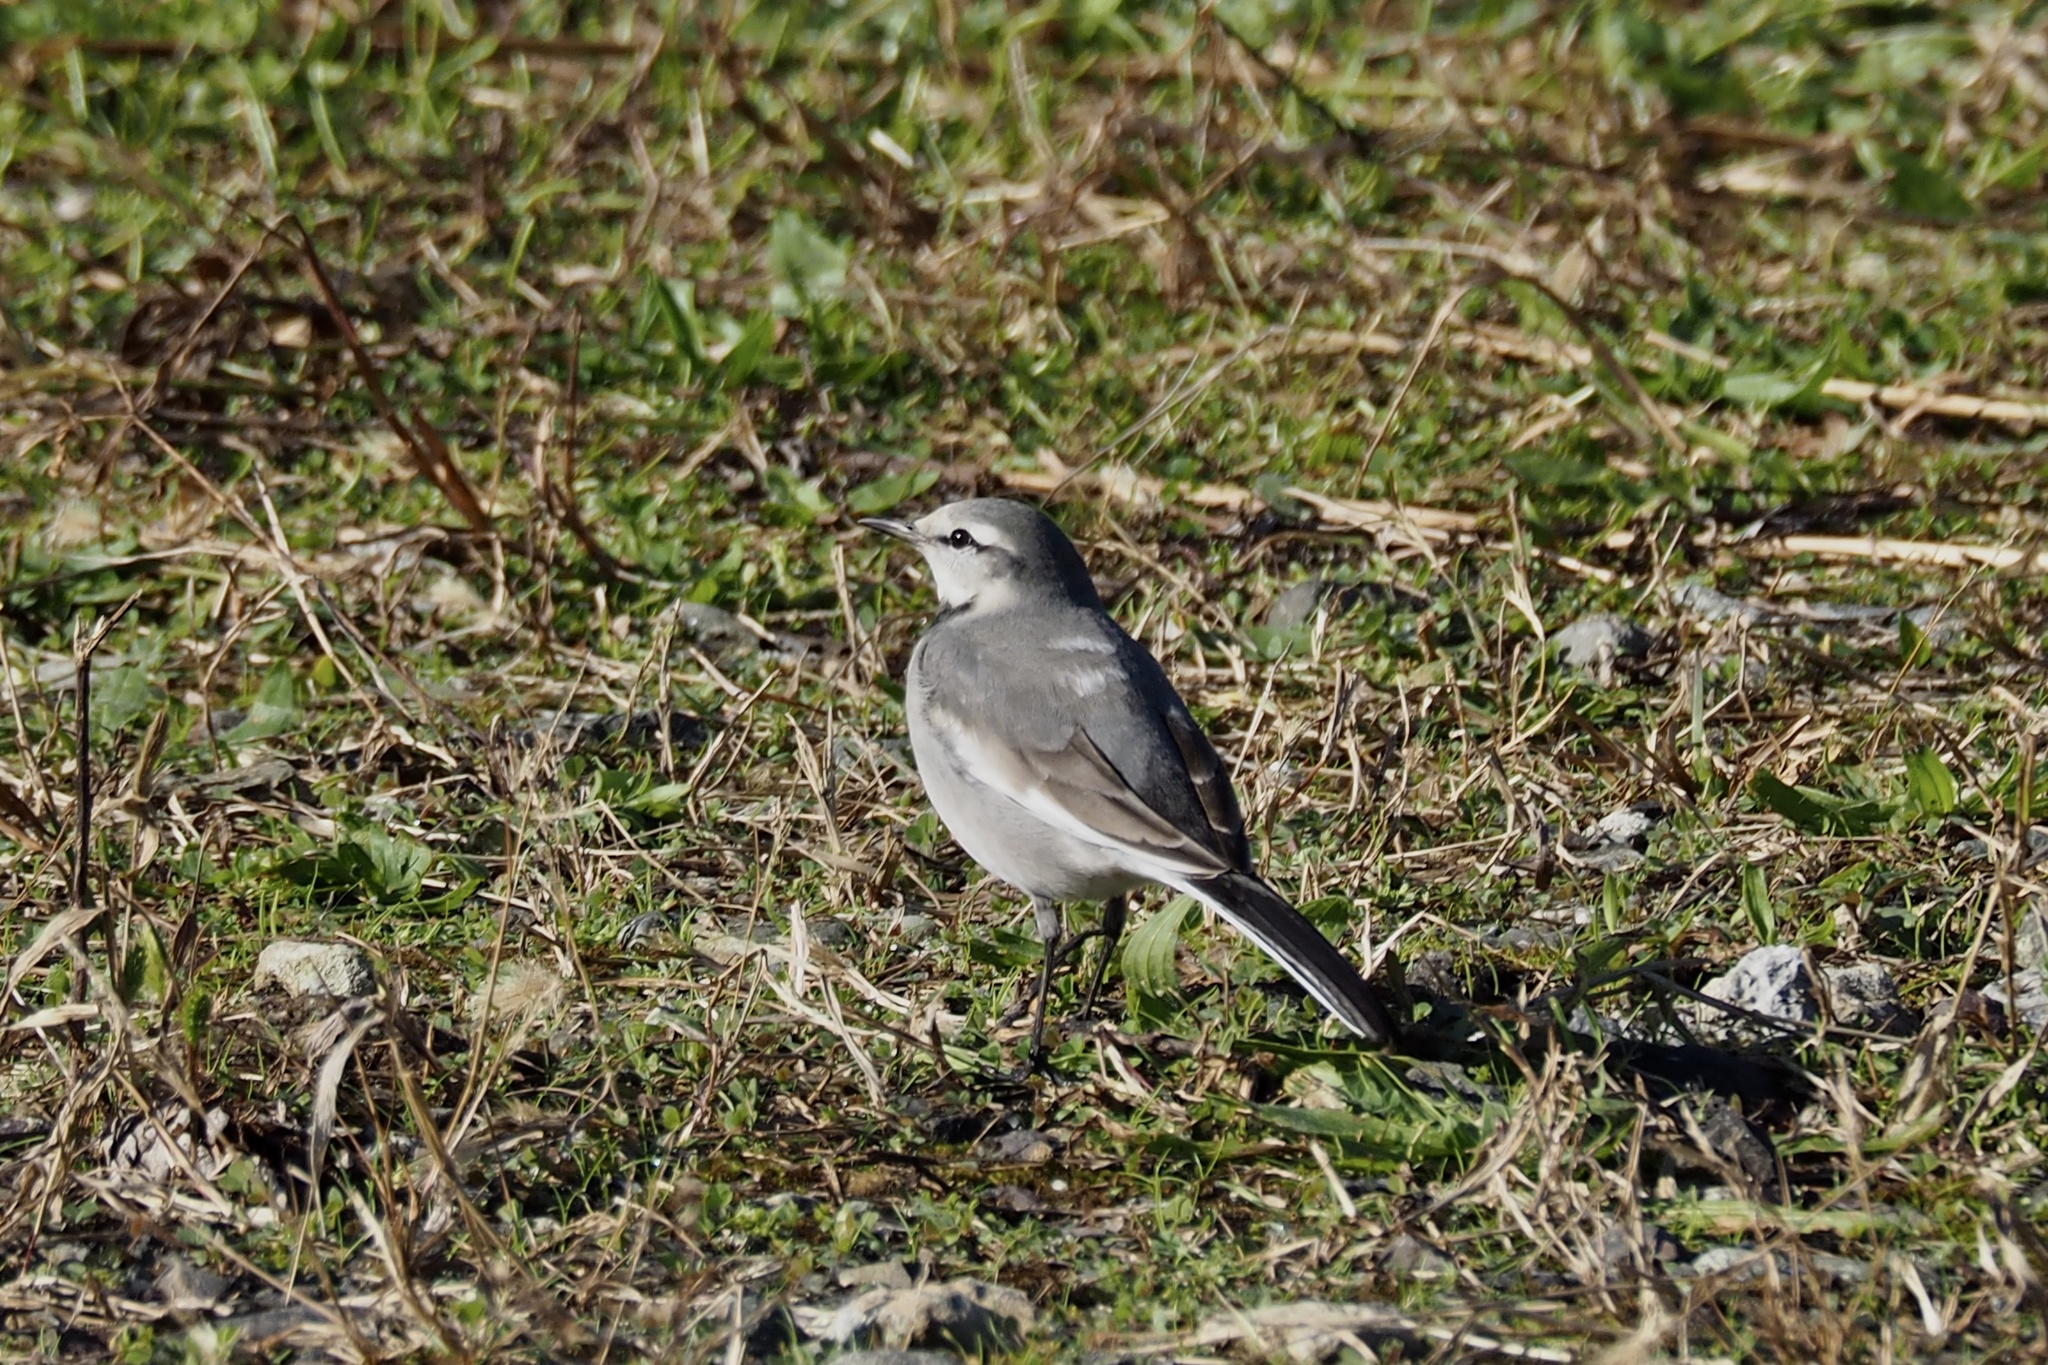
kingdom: Animalia
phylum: Chordata
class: Aves
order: Passeriformes
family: Motacillidae
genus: Motacilla
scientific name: Motacilla alba
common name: White wagtail
